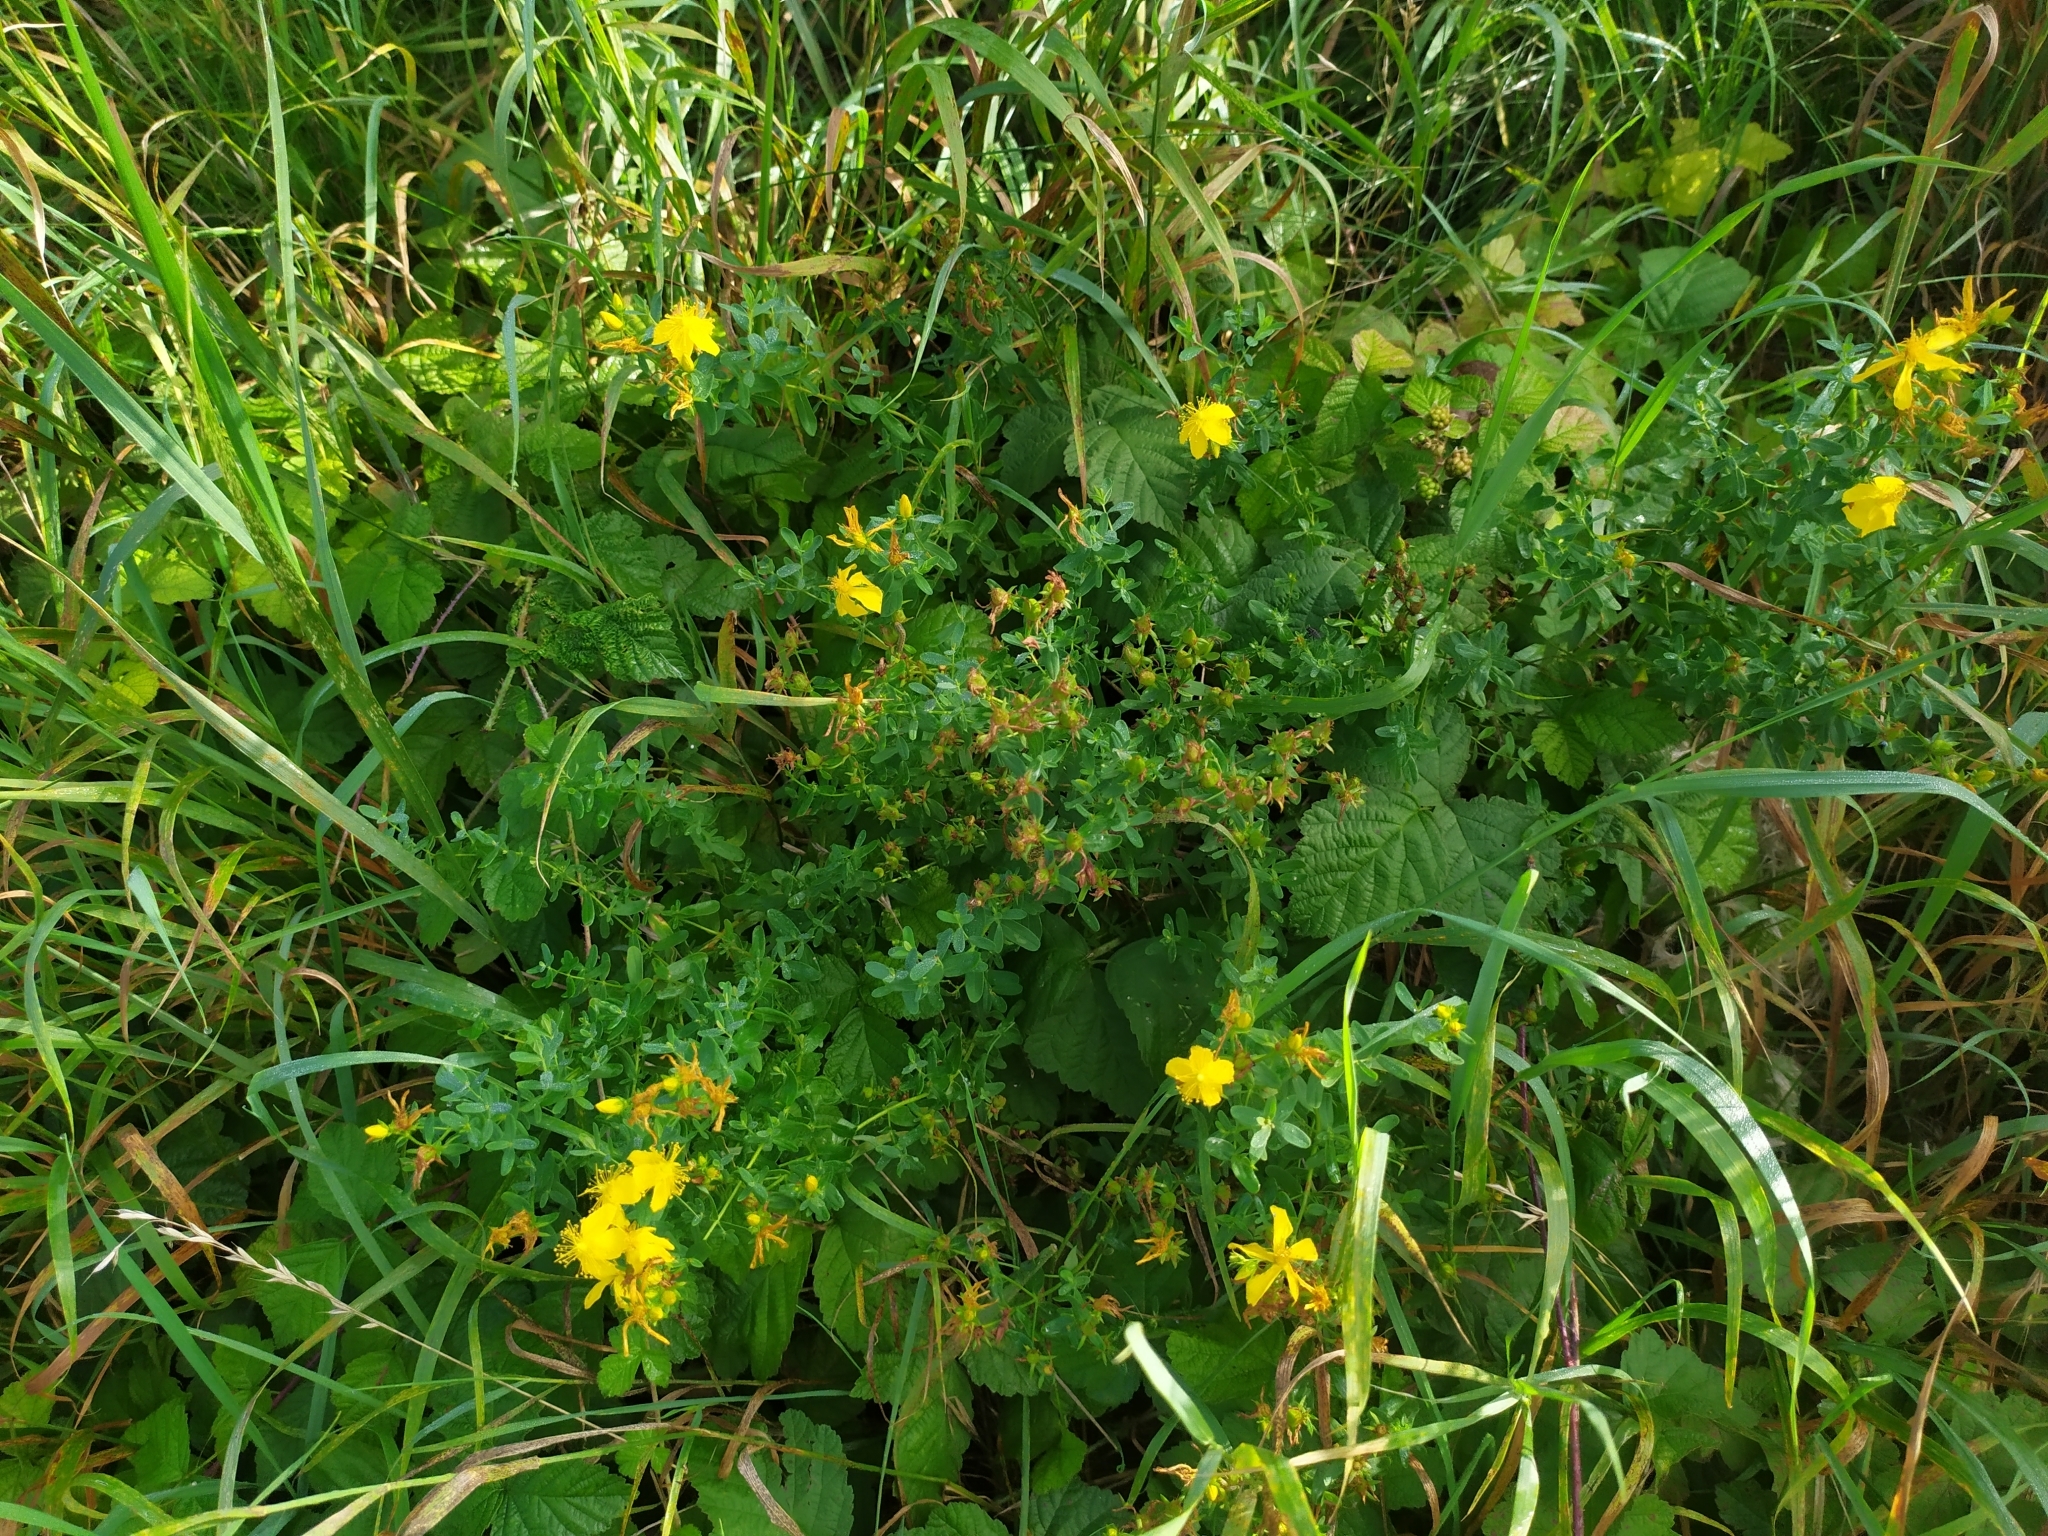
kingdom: Plantae
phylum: Tracheophyta
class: Magnoliopsida
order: Malpighiales
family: Hypericaceae
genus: Hypericum
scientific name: Hypericum perforatum
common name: Common st. johnswort
